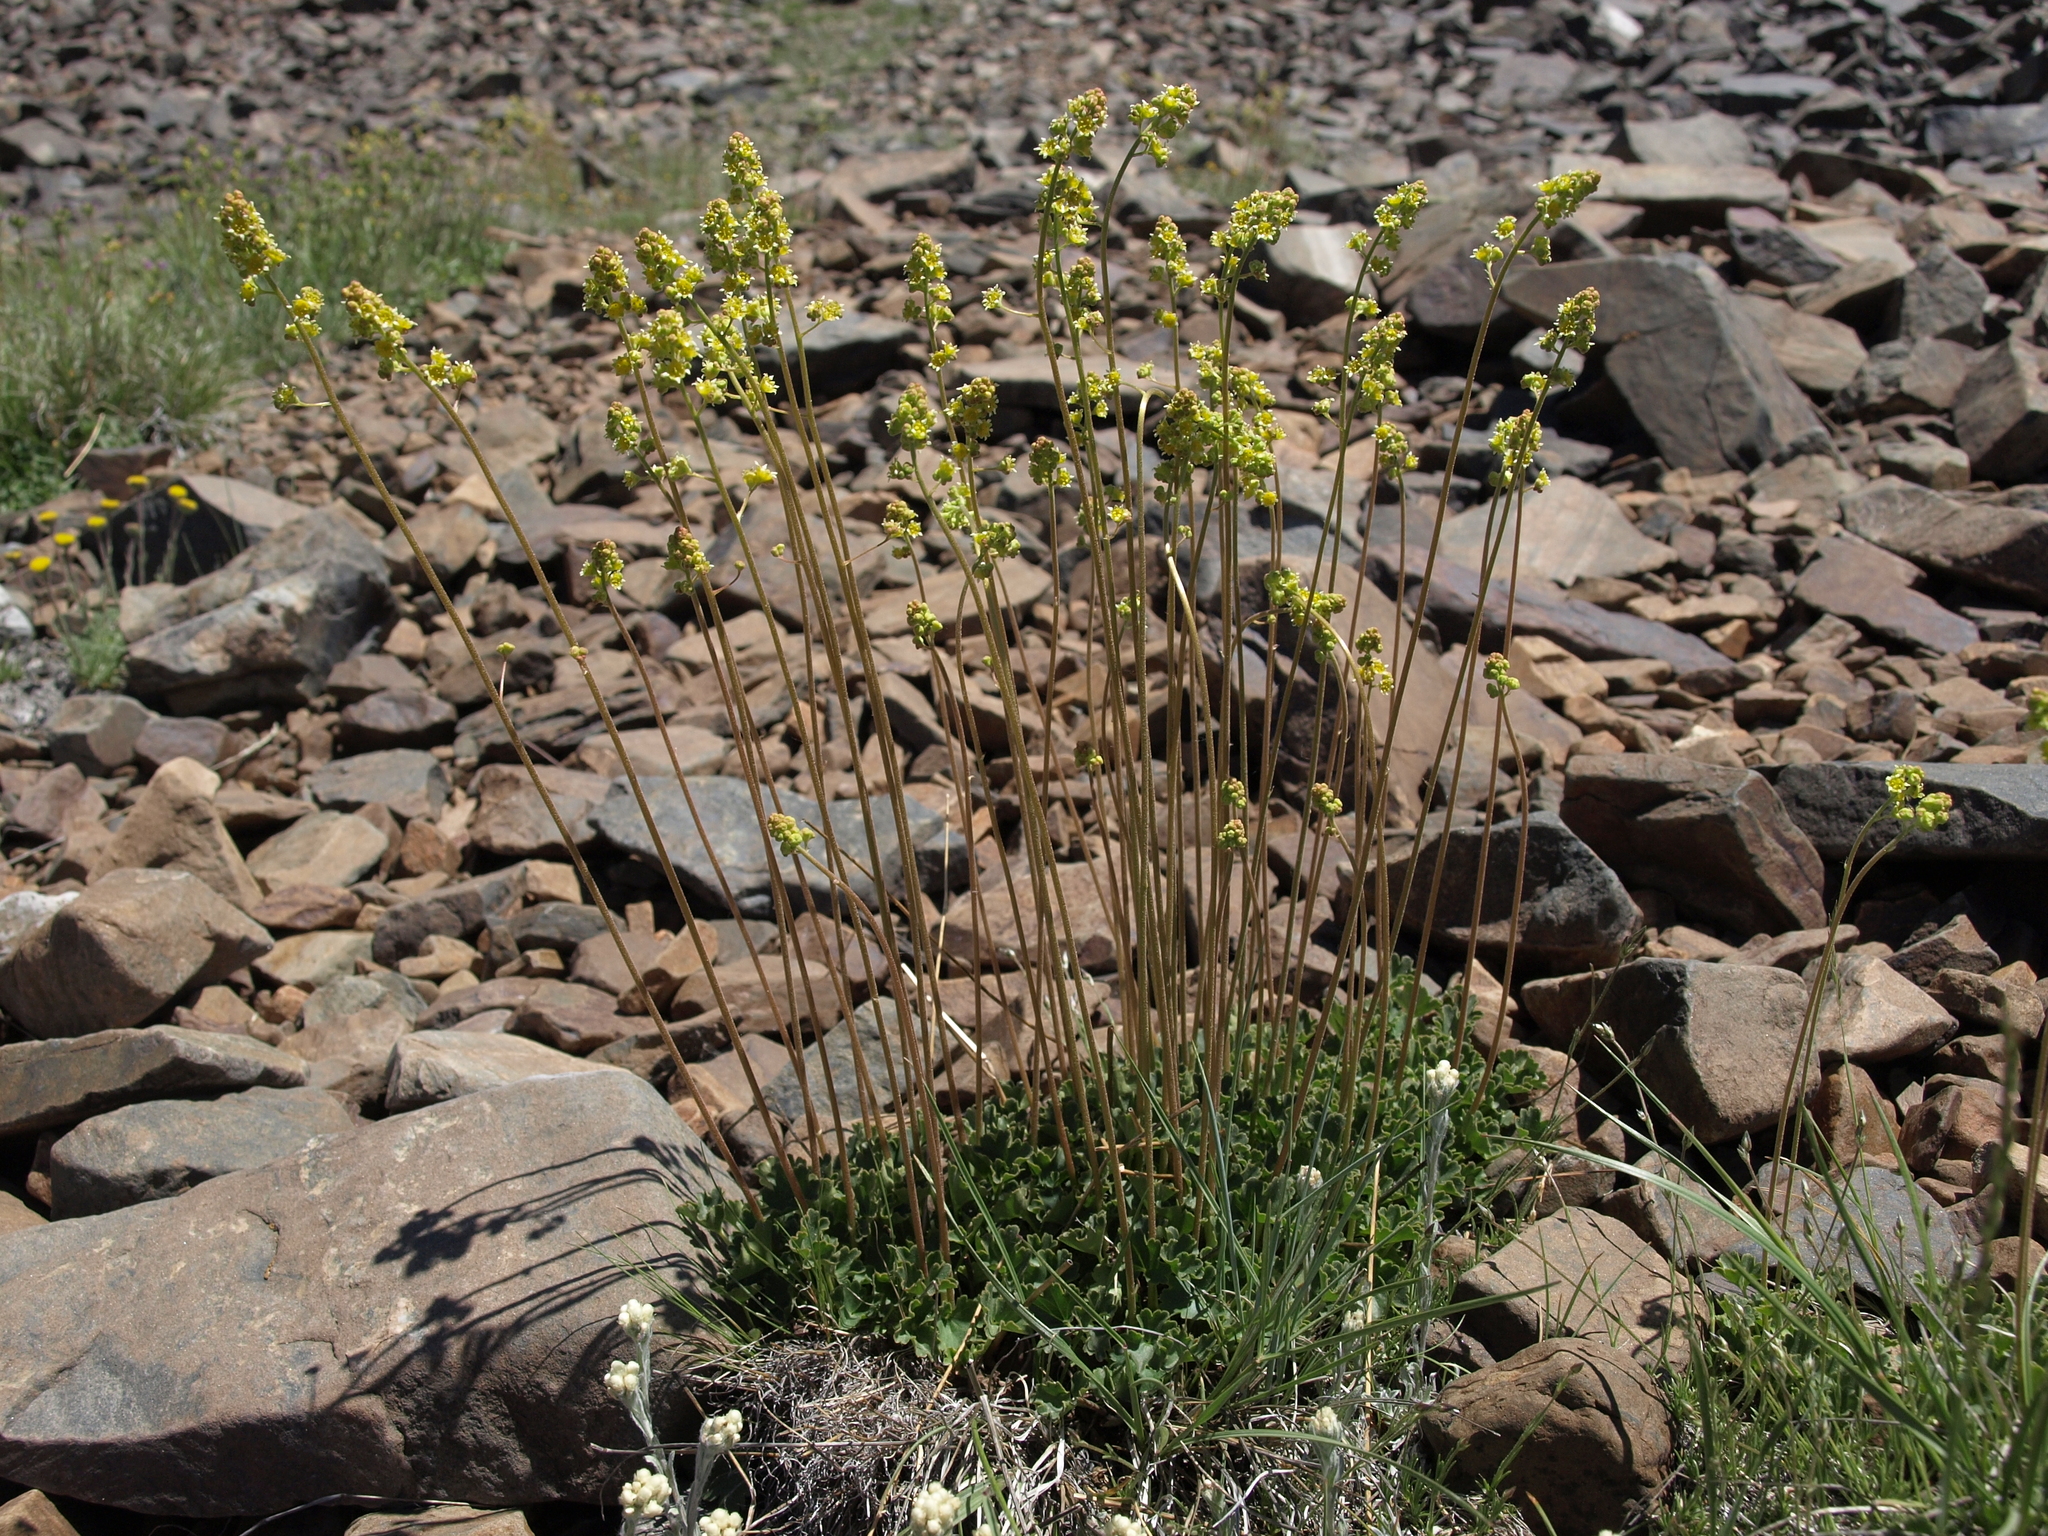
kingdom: Plantae
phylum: Tracheophyta
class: Magnoliopsida
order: Saxifragales
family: Saxifragaceae
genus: Heuchera
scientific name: Heuchera parvifolia
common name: Common alumroot
